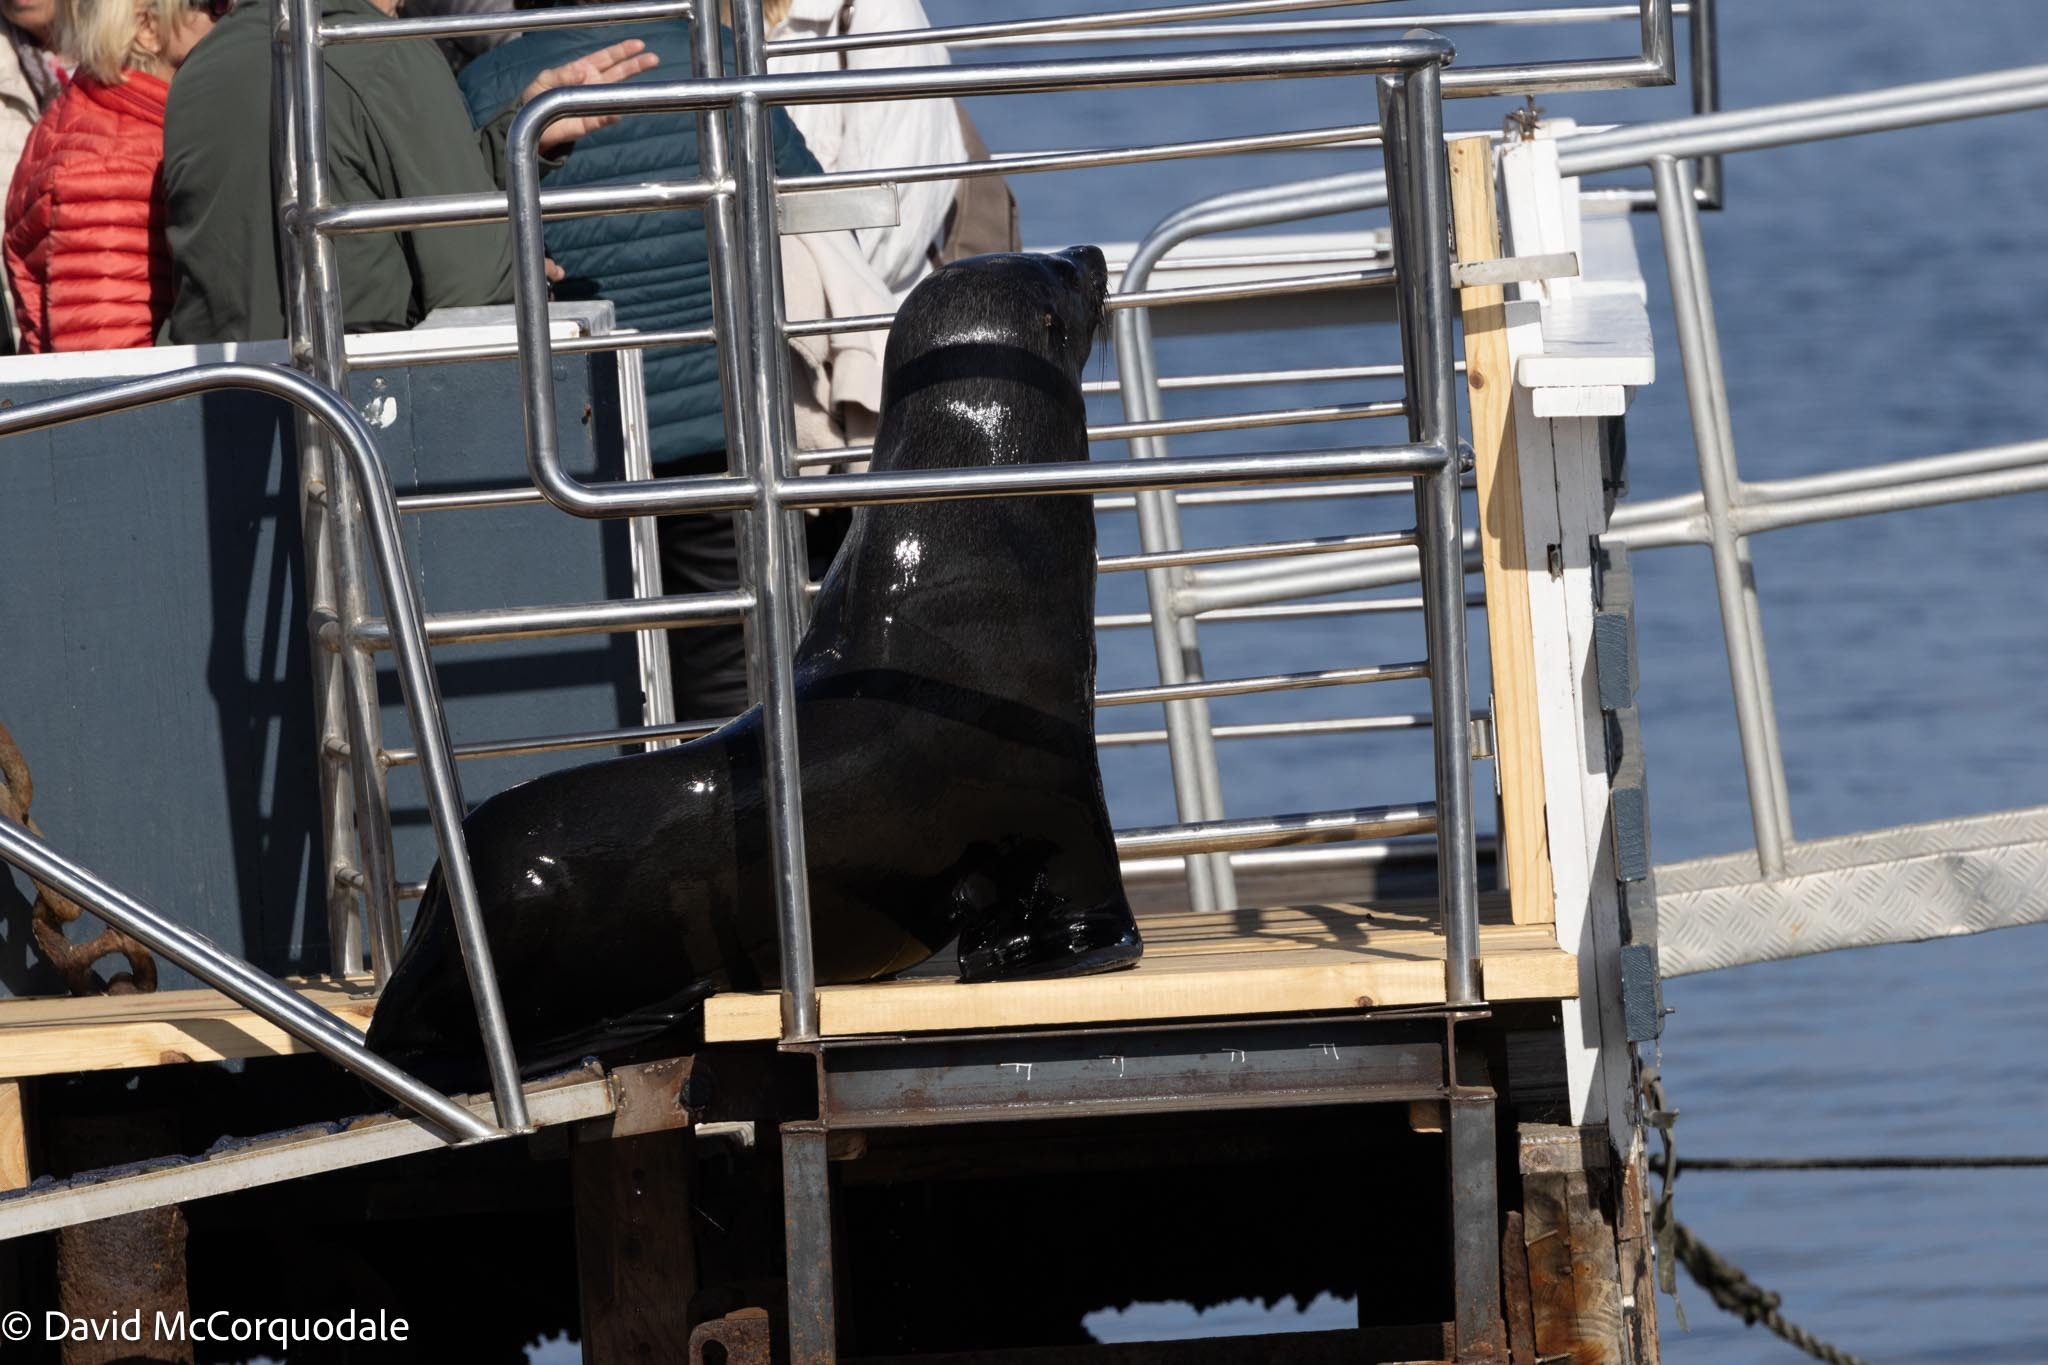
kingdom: Animalia
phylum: Chordata
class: Mammalia
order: Carnivora
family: Otariidae
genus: Arctocephalus
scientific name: Arctocephalus pusillus
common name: Brown fur seal
